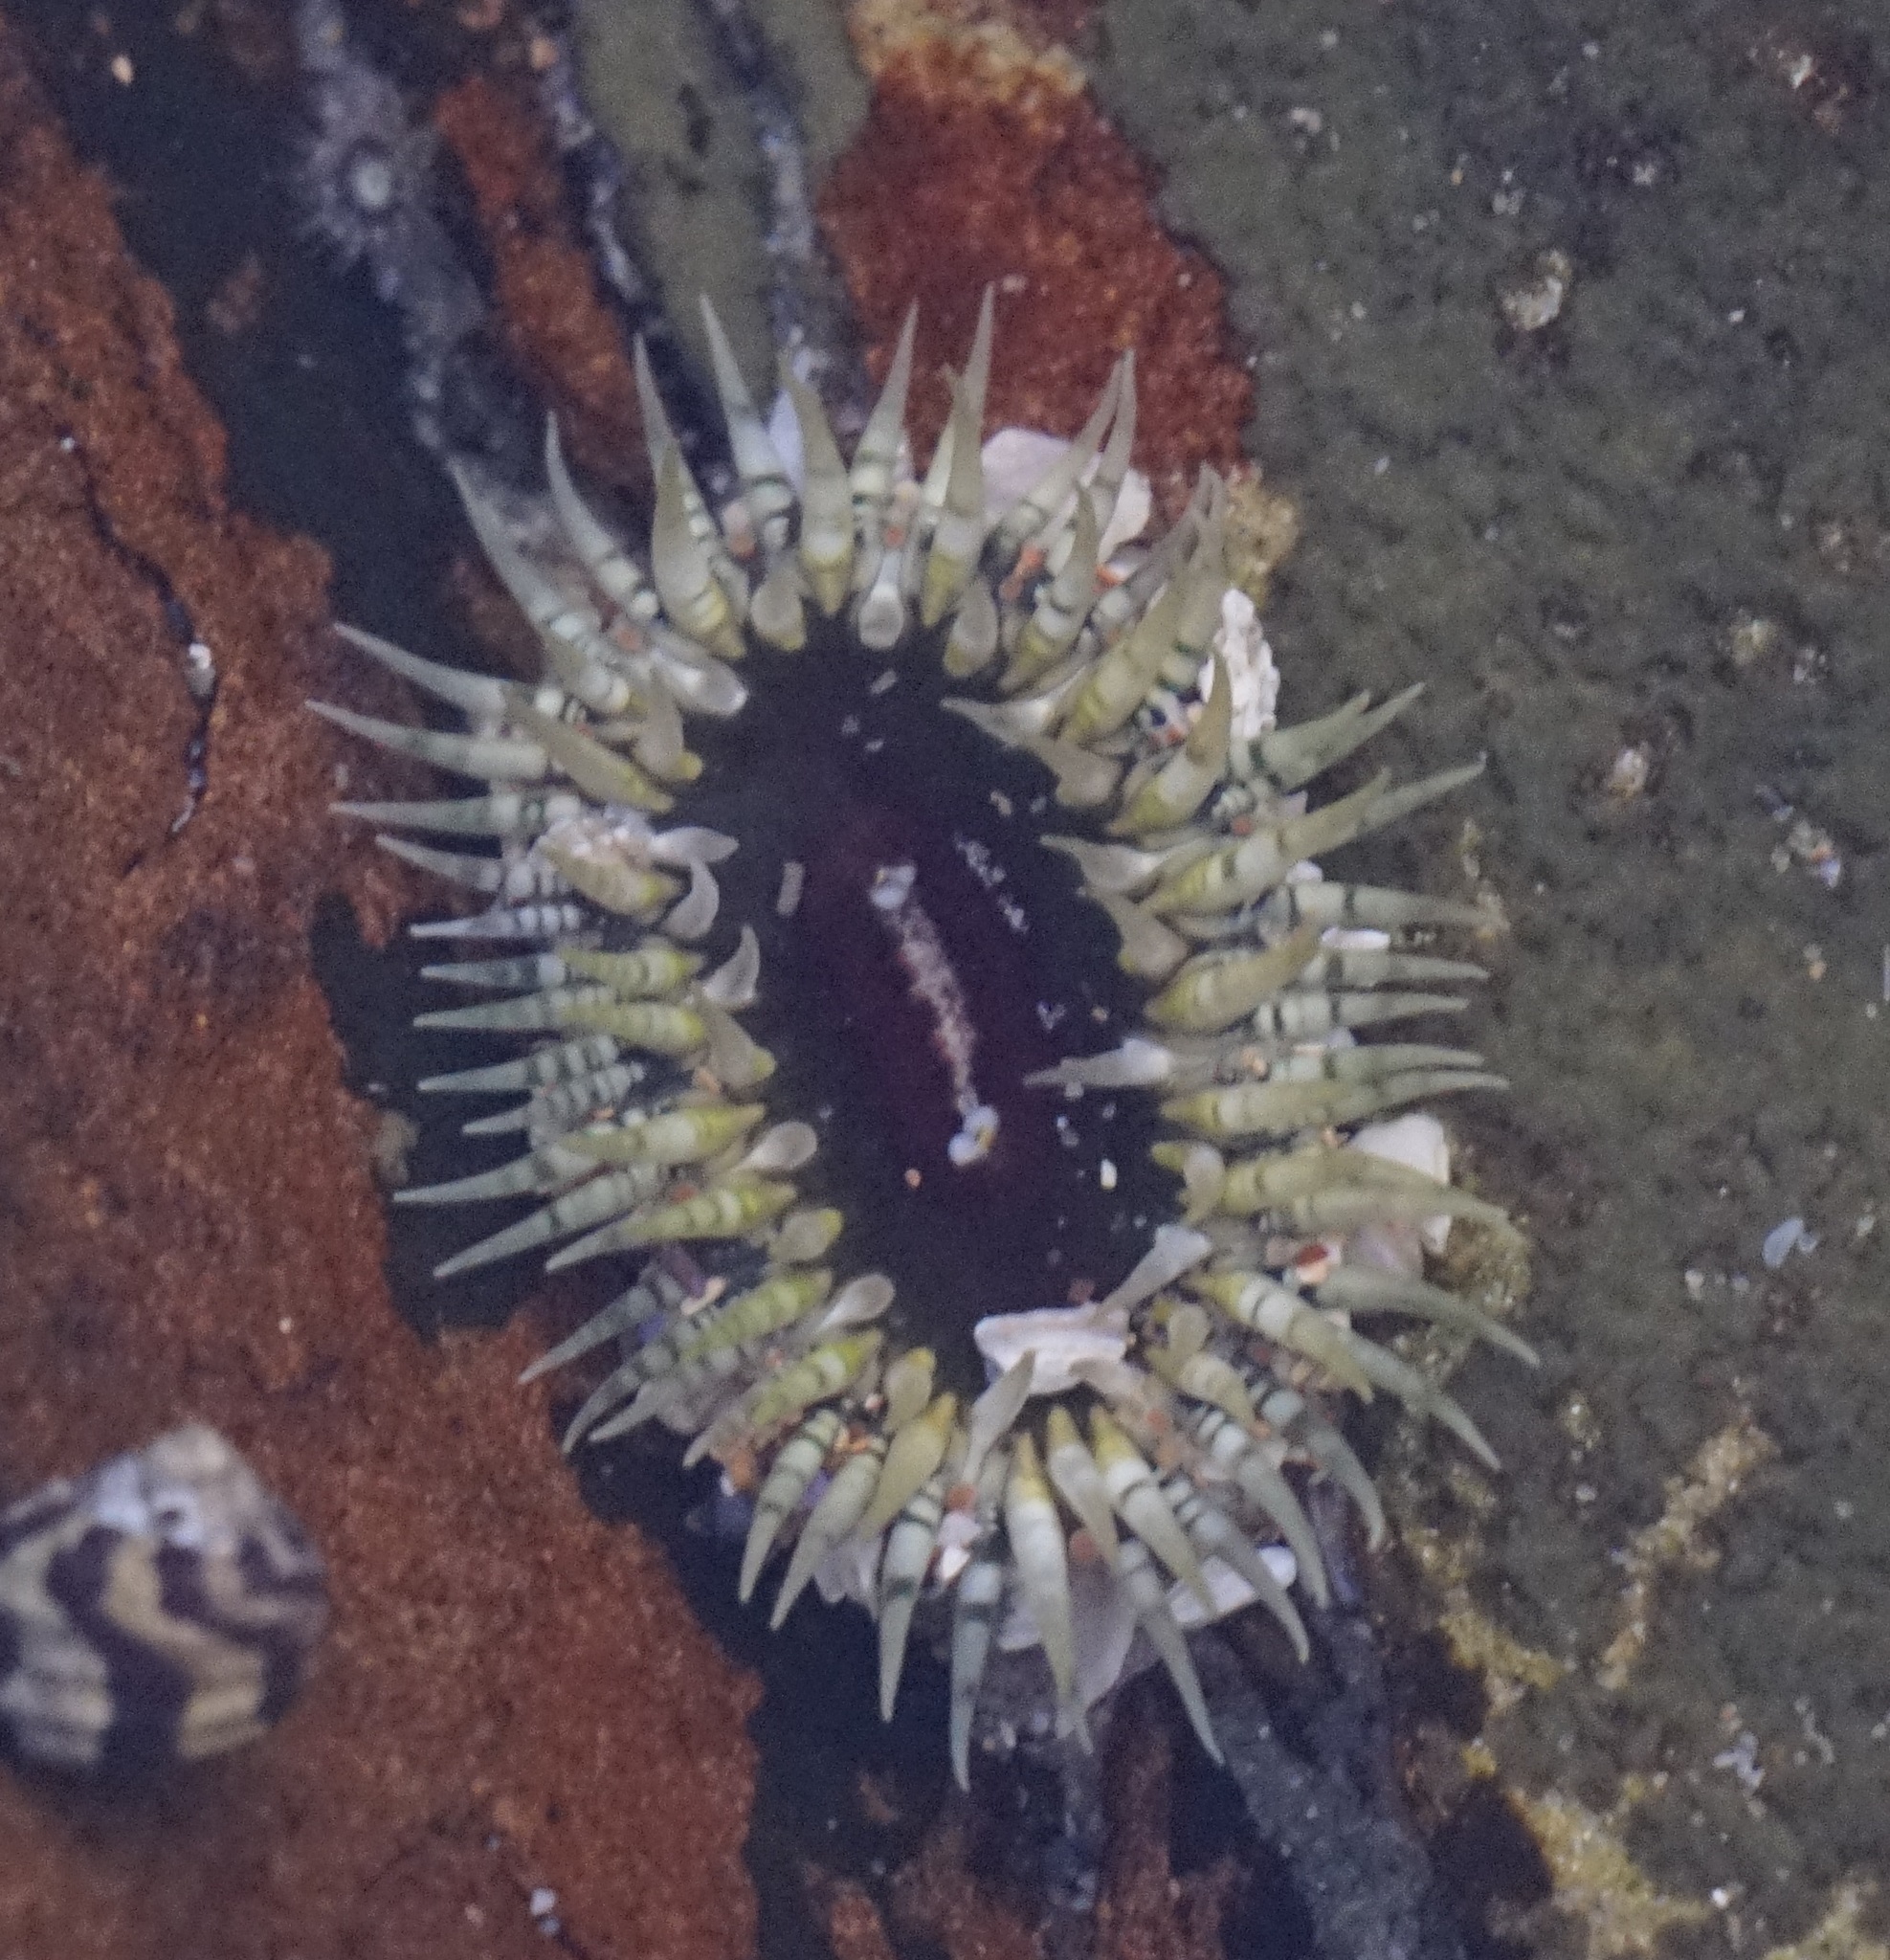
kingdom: Animalia
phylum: Cnidaria
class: Anthozoa
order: Actiniaria
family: Actiniidae
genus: Oulactis
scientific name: Oulactis muscosa
